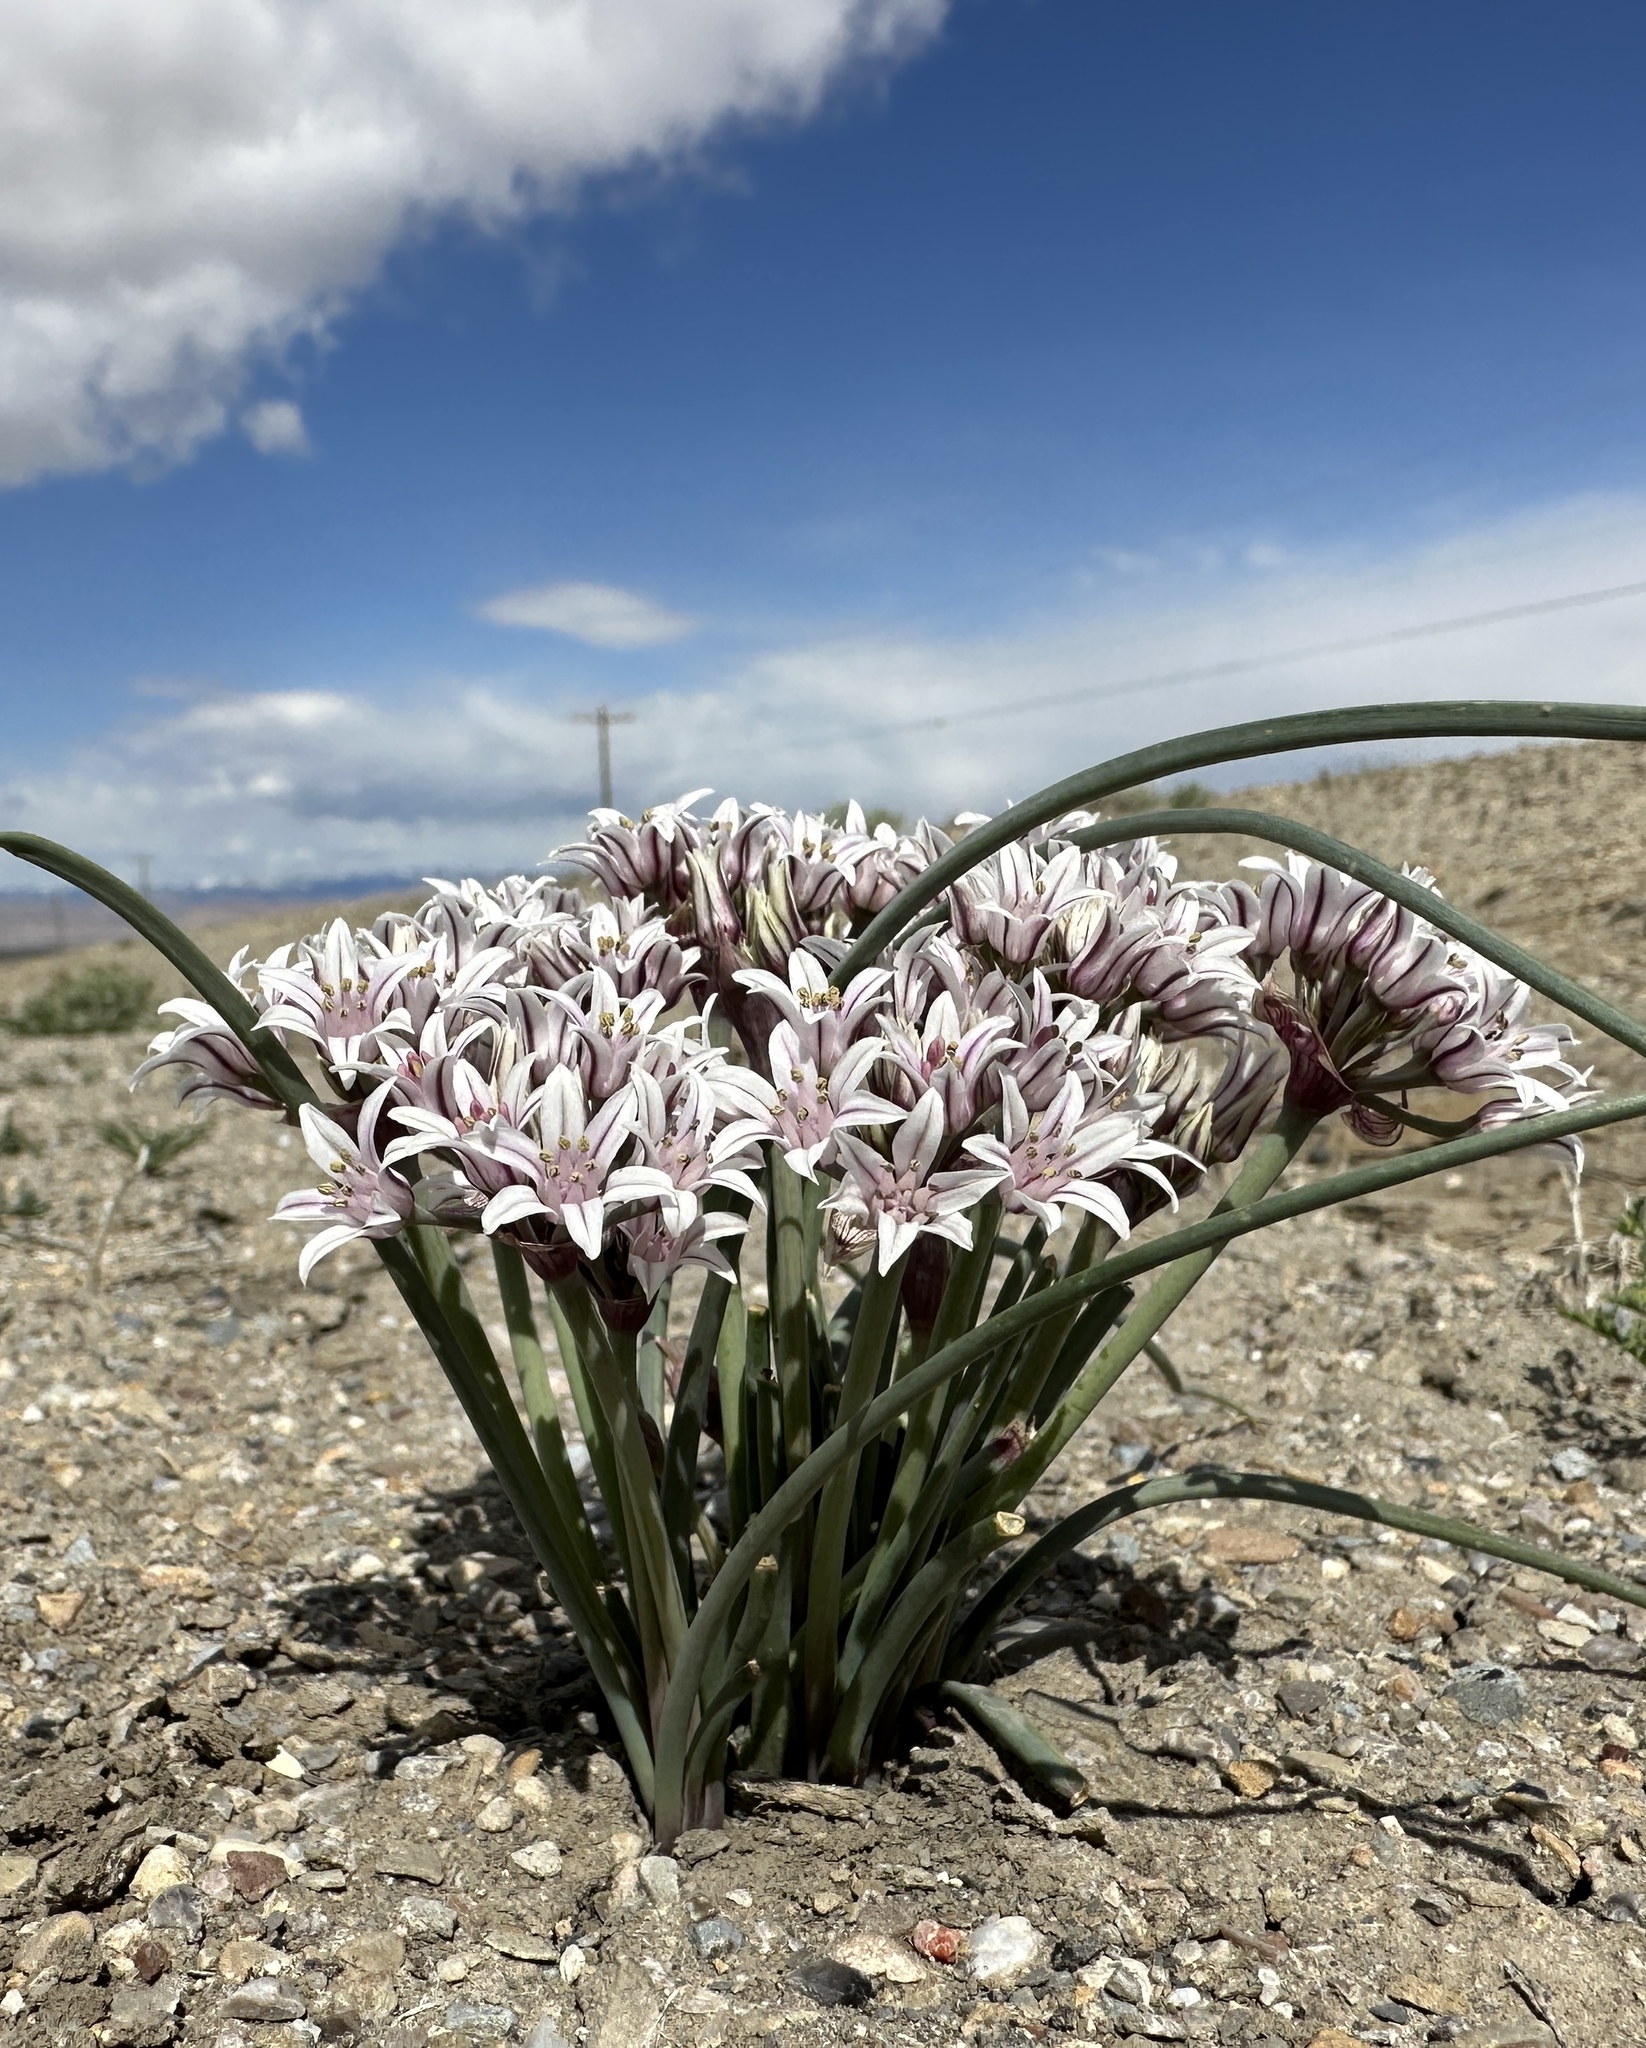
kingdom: Plantae
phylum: Tracheophyta
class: Liliopsida
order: Asparagales
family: Amaryllidaceae
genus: Allium
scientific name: Allium macropetalum
